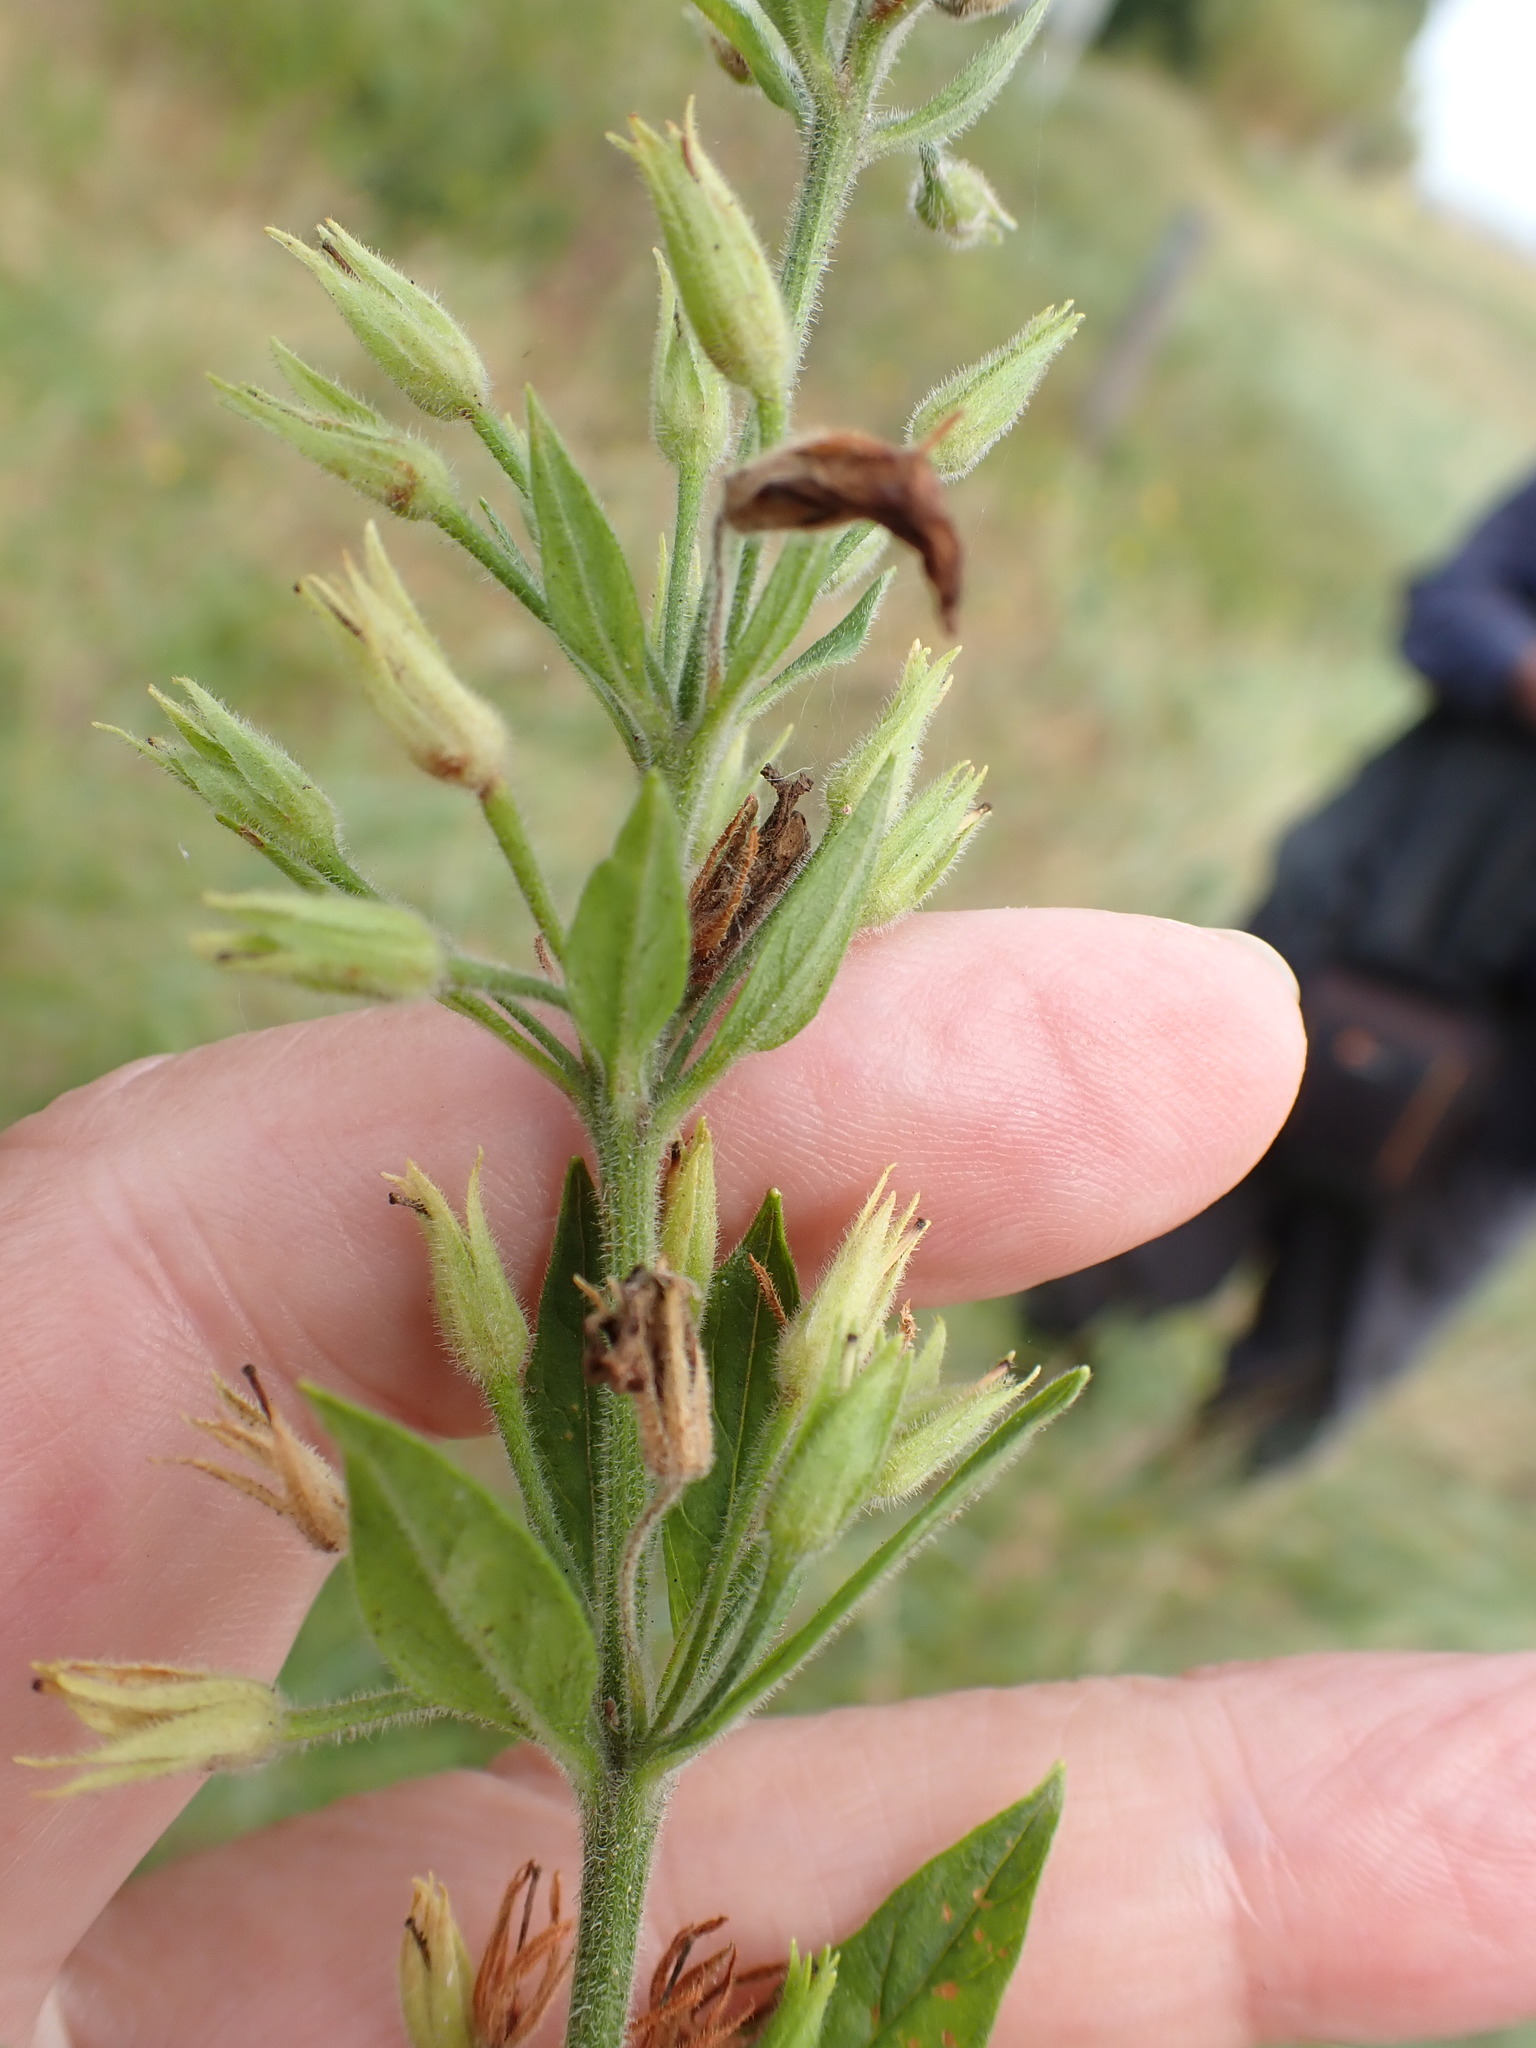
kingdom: Plantae
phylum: Tracheophyta
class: Magnoliopsida
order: Ericales
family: Primulaceae
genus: Lysimachia
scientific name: Lysimachia punctata
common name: Dotted loosestrife
